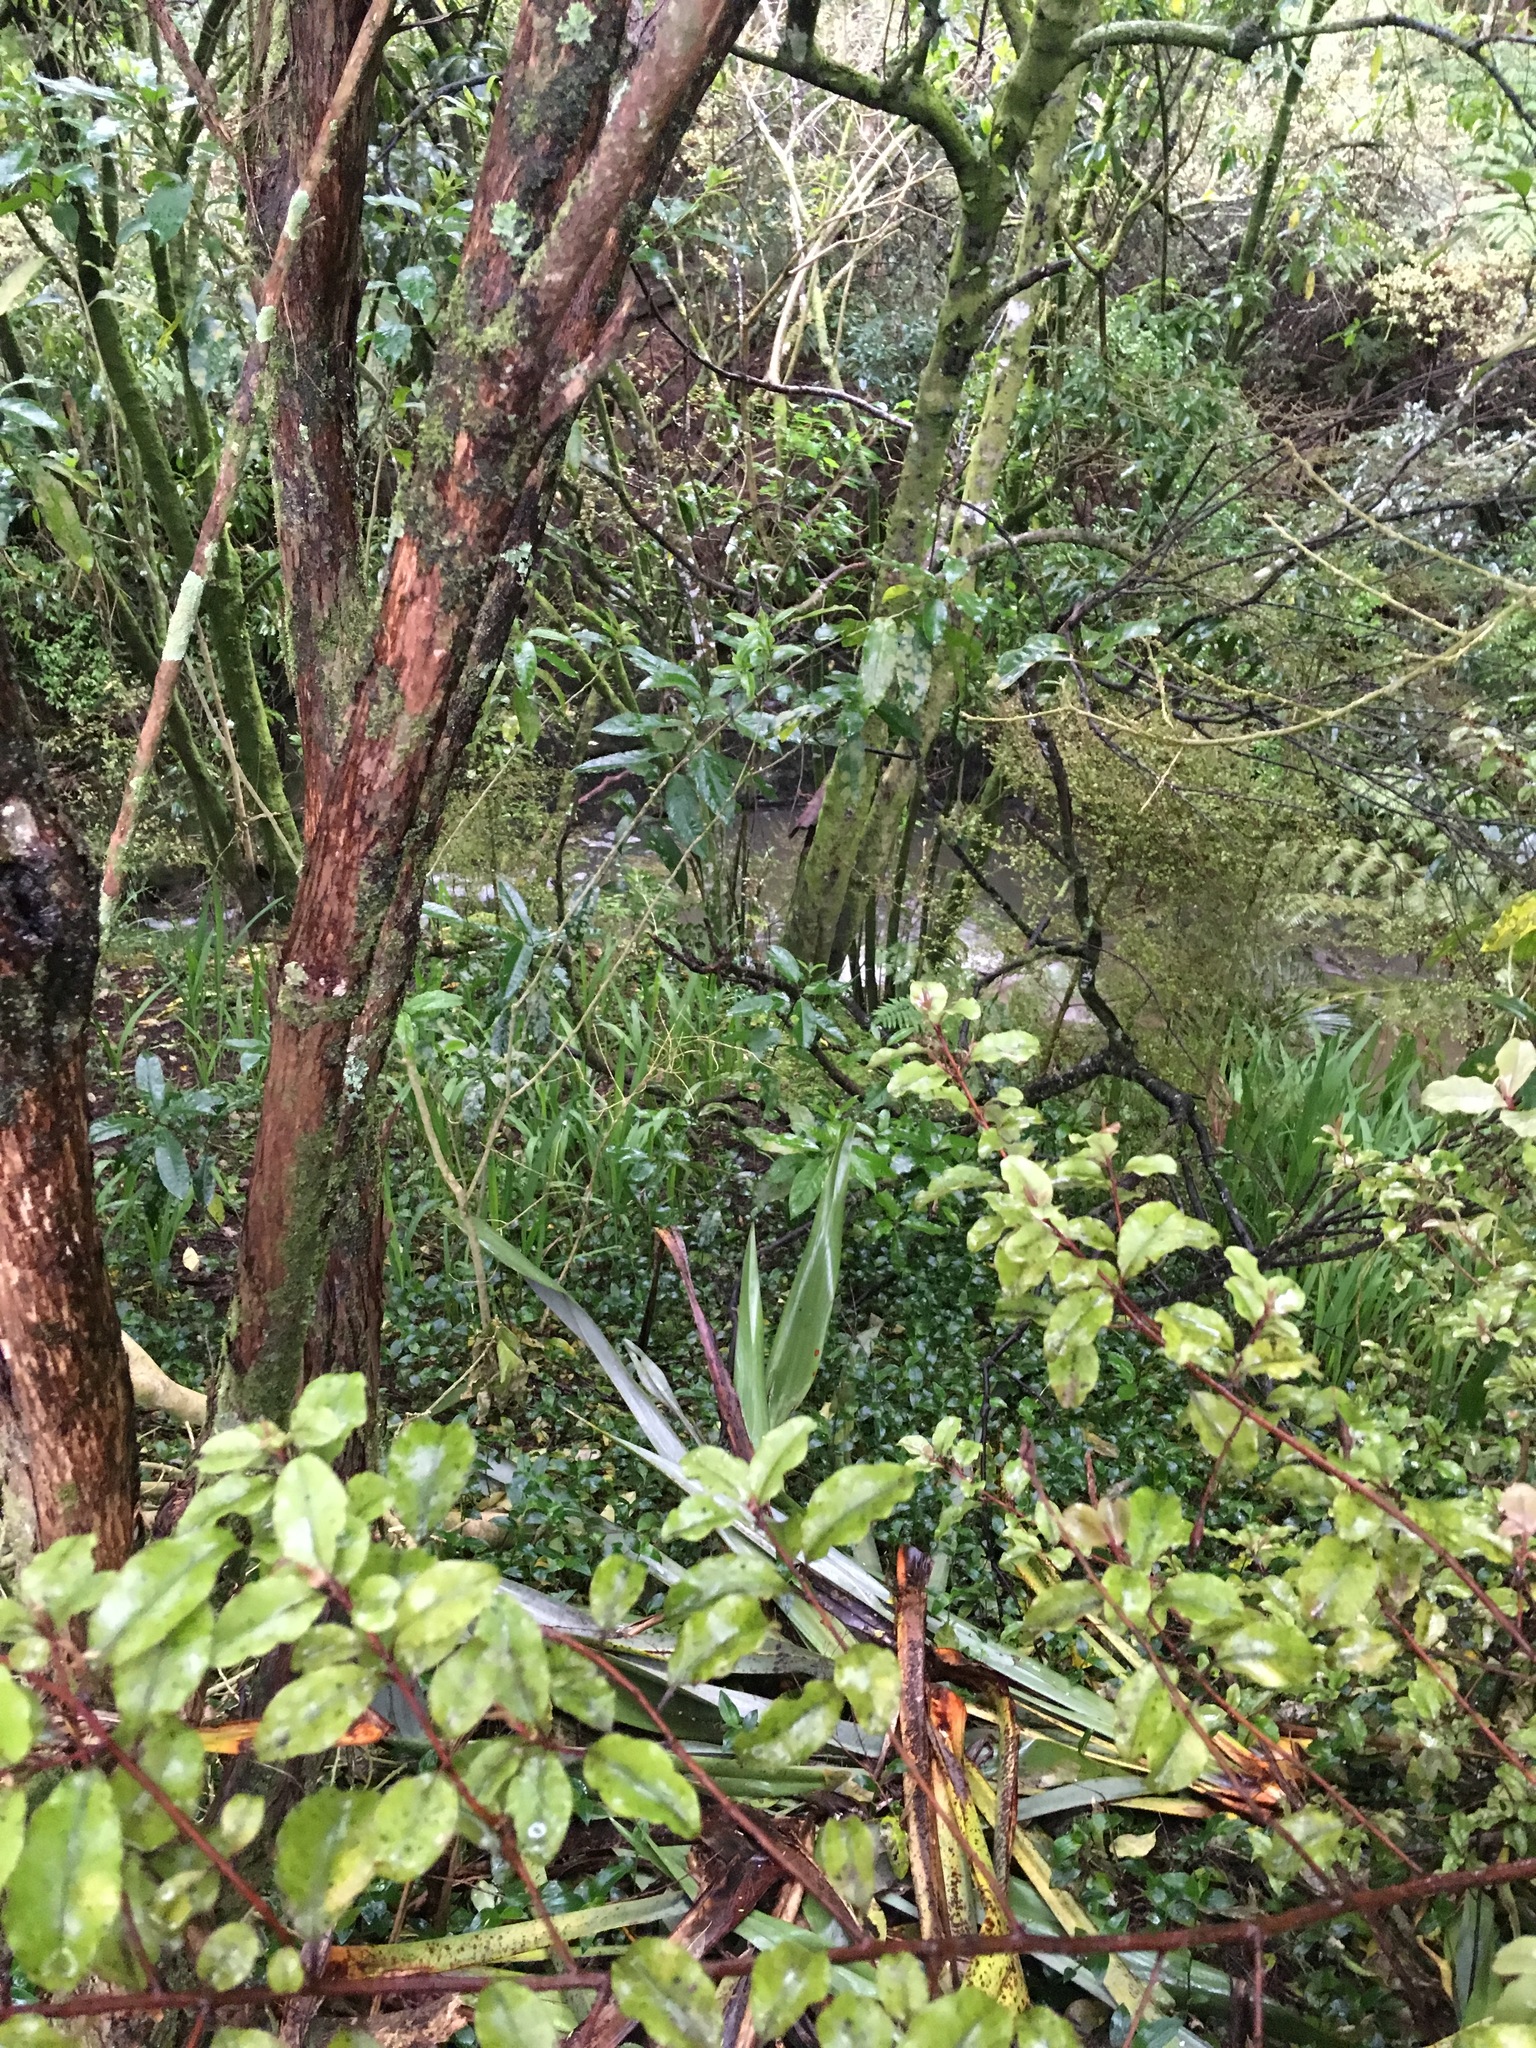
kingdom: Plantae
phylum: Tracheophyta
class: Liliopsida
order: Commelinales
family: Commelinaceae
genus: Tradescantia
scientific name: Tradescantia fluminensis
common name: Wandering-jew
